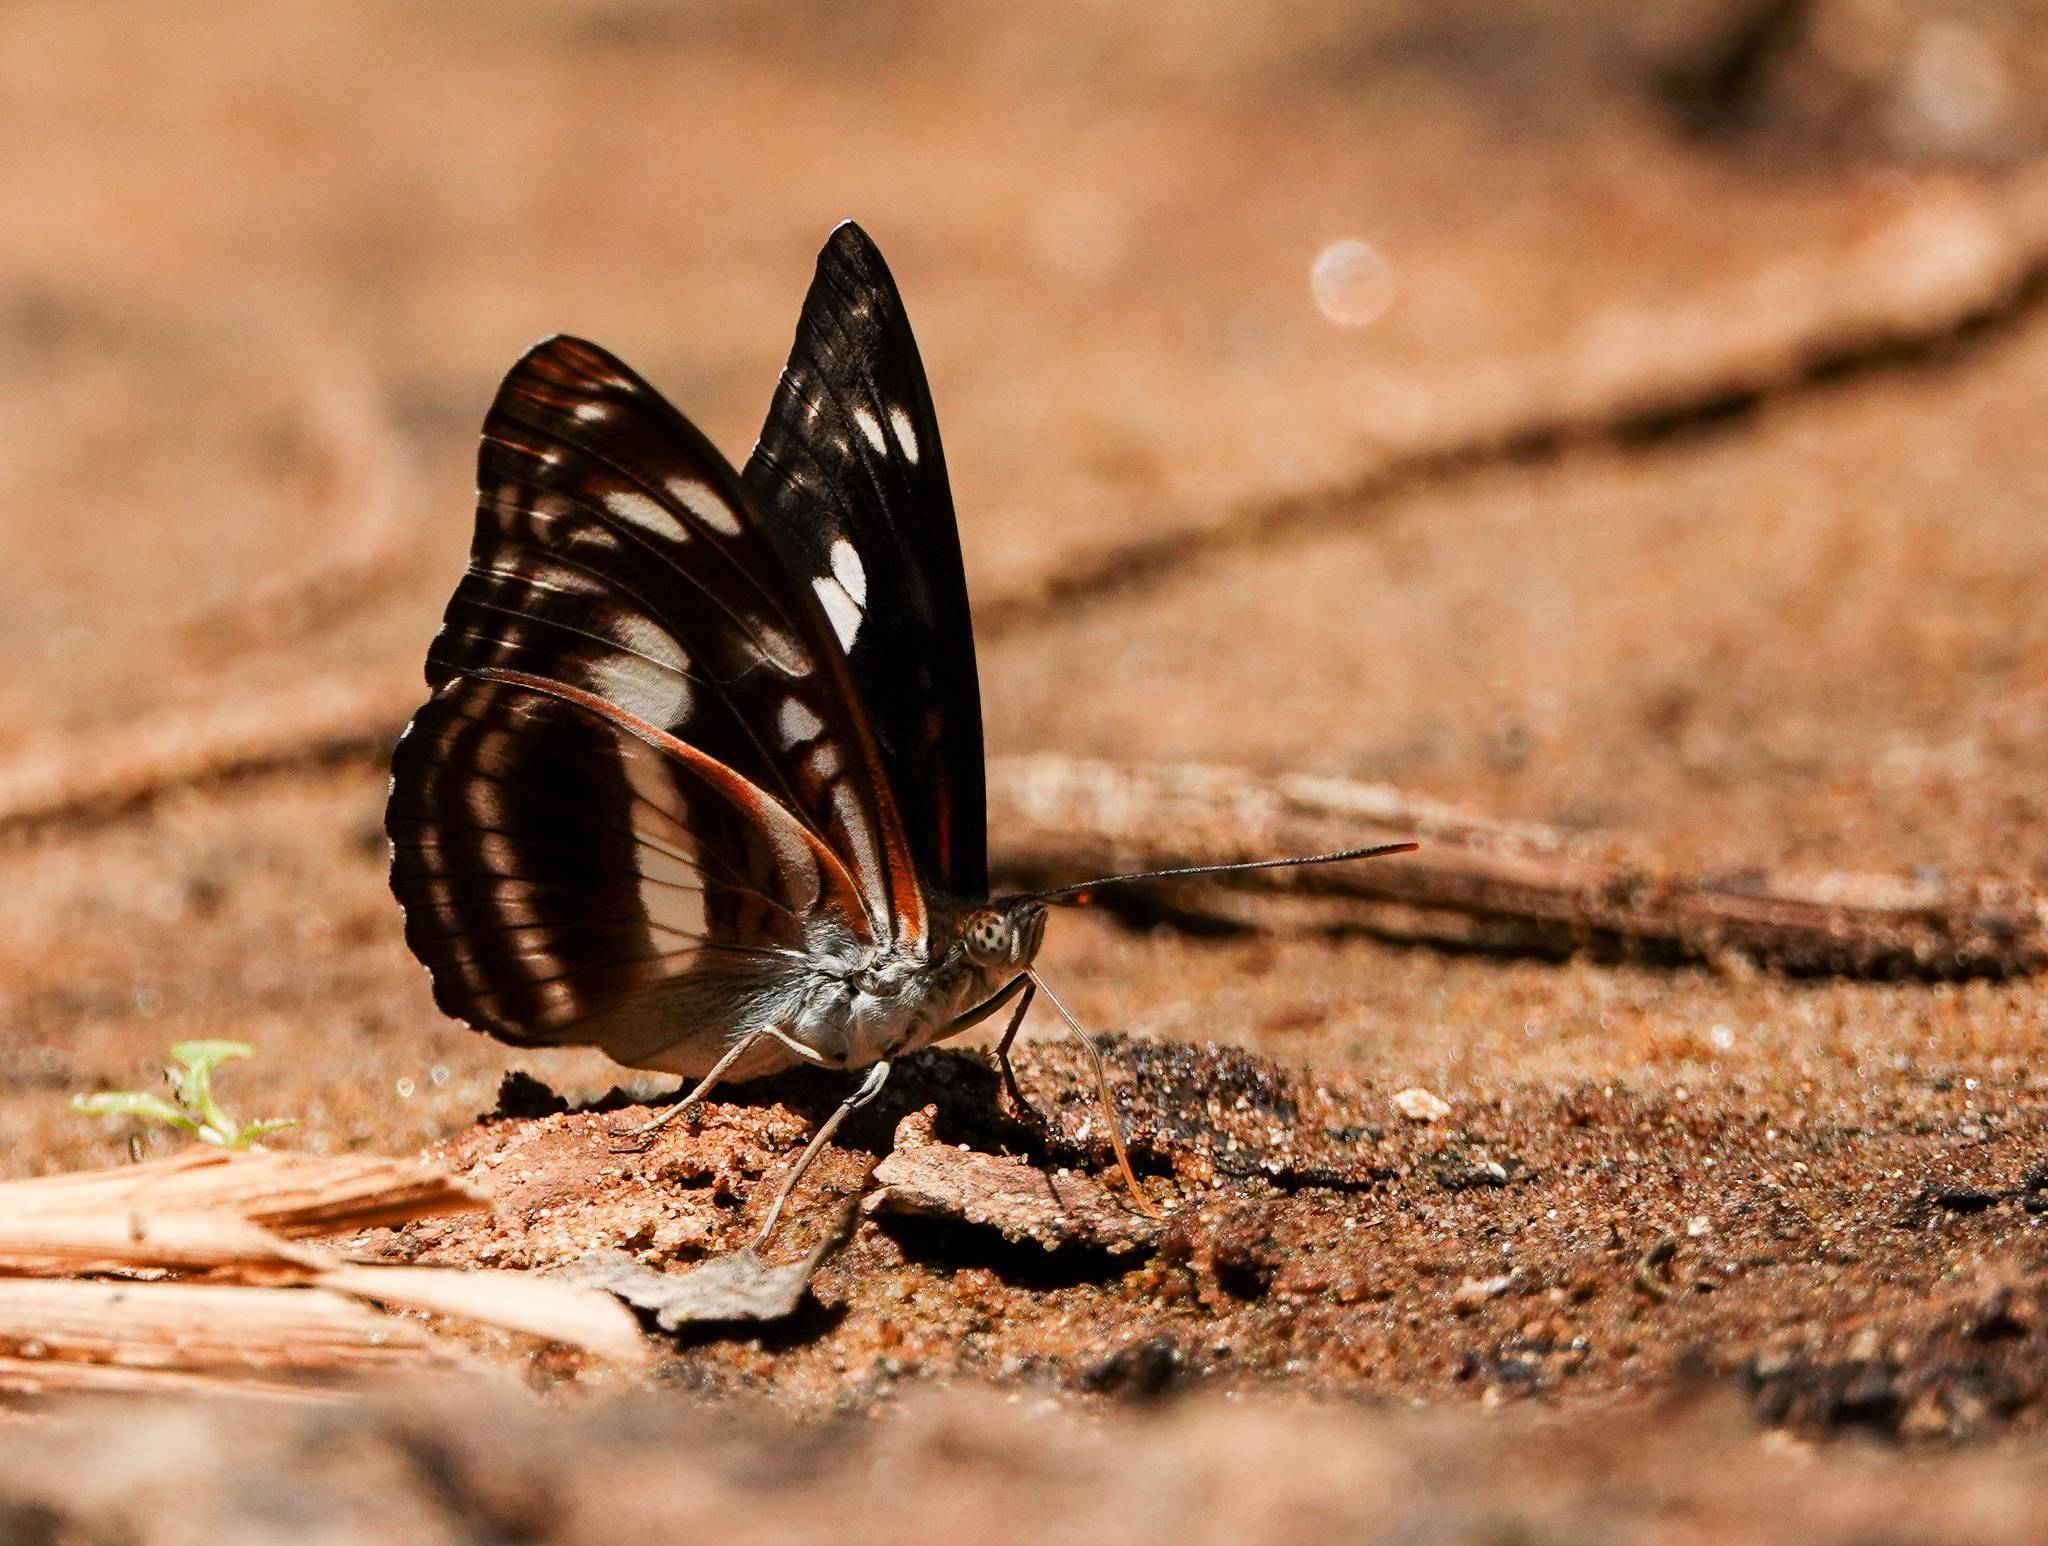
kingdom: Animalia
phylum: Arthropoda
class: Insecta
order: Lepidoptera
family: Nymphalidae
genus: Parathyma
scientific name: Parathyma selenophora
